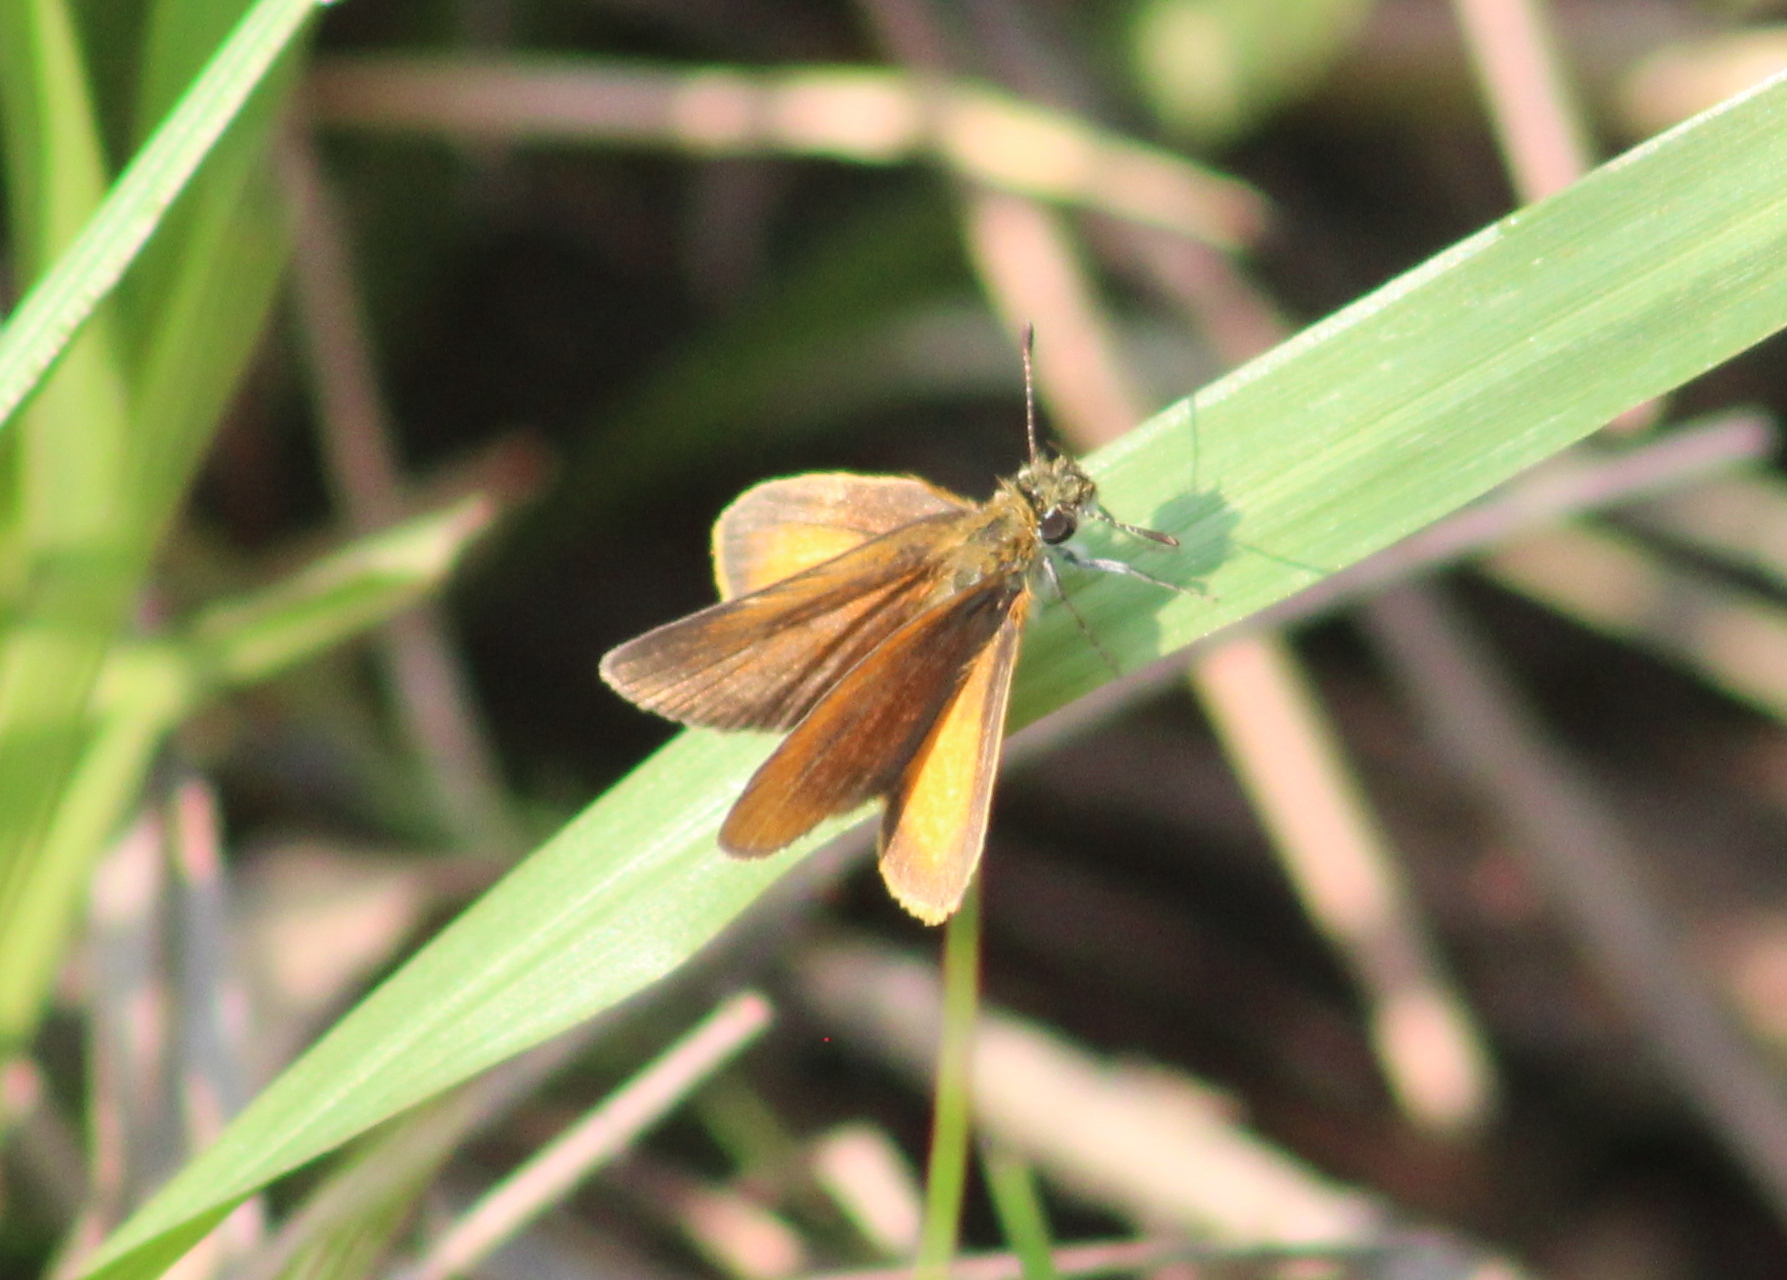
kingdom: Animalia
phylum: Arthropoda
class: Insecta
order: Lepidoptera
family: Hesperiidae
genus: Ancyloxypha
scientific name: Ancyloxypha numitor
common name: Least skipper
